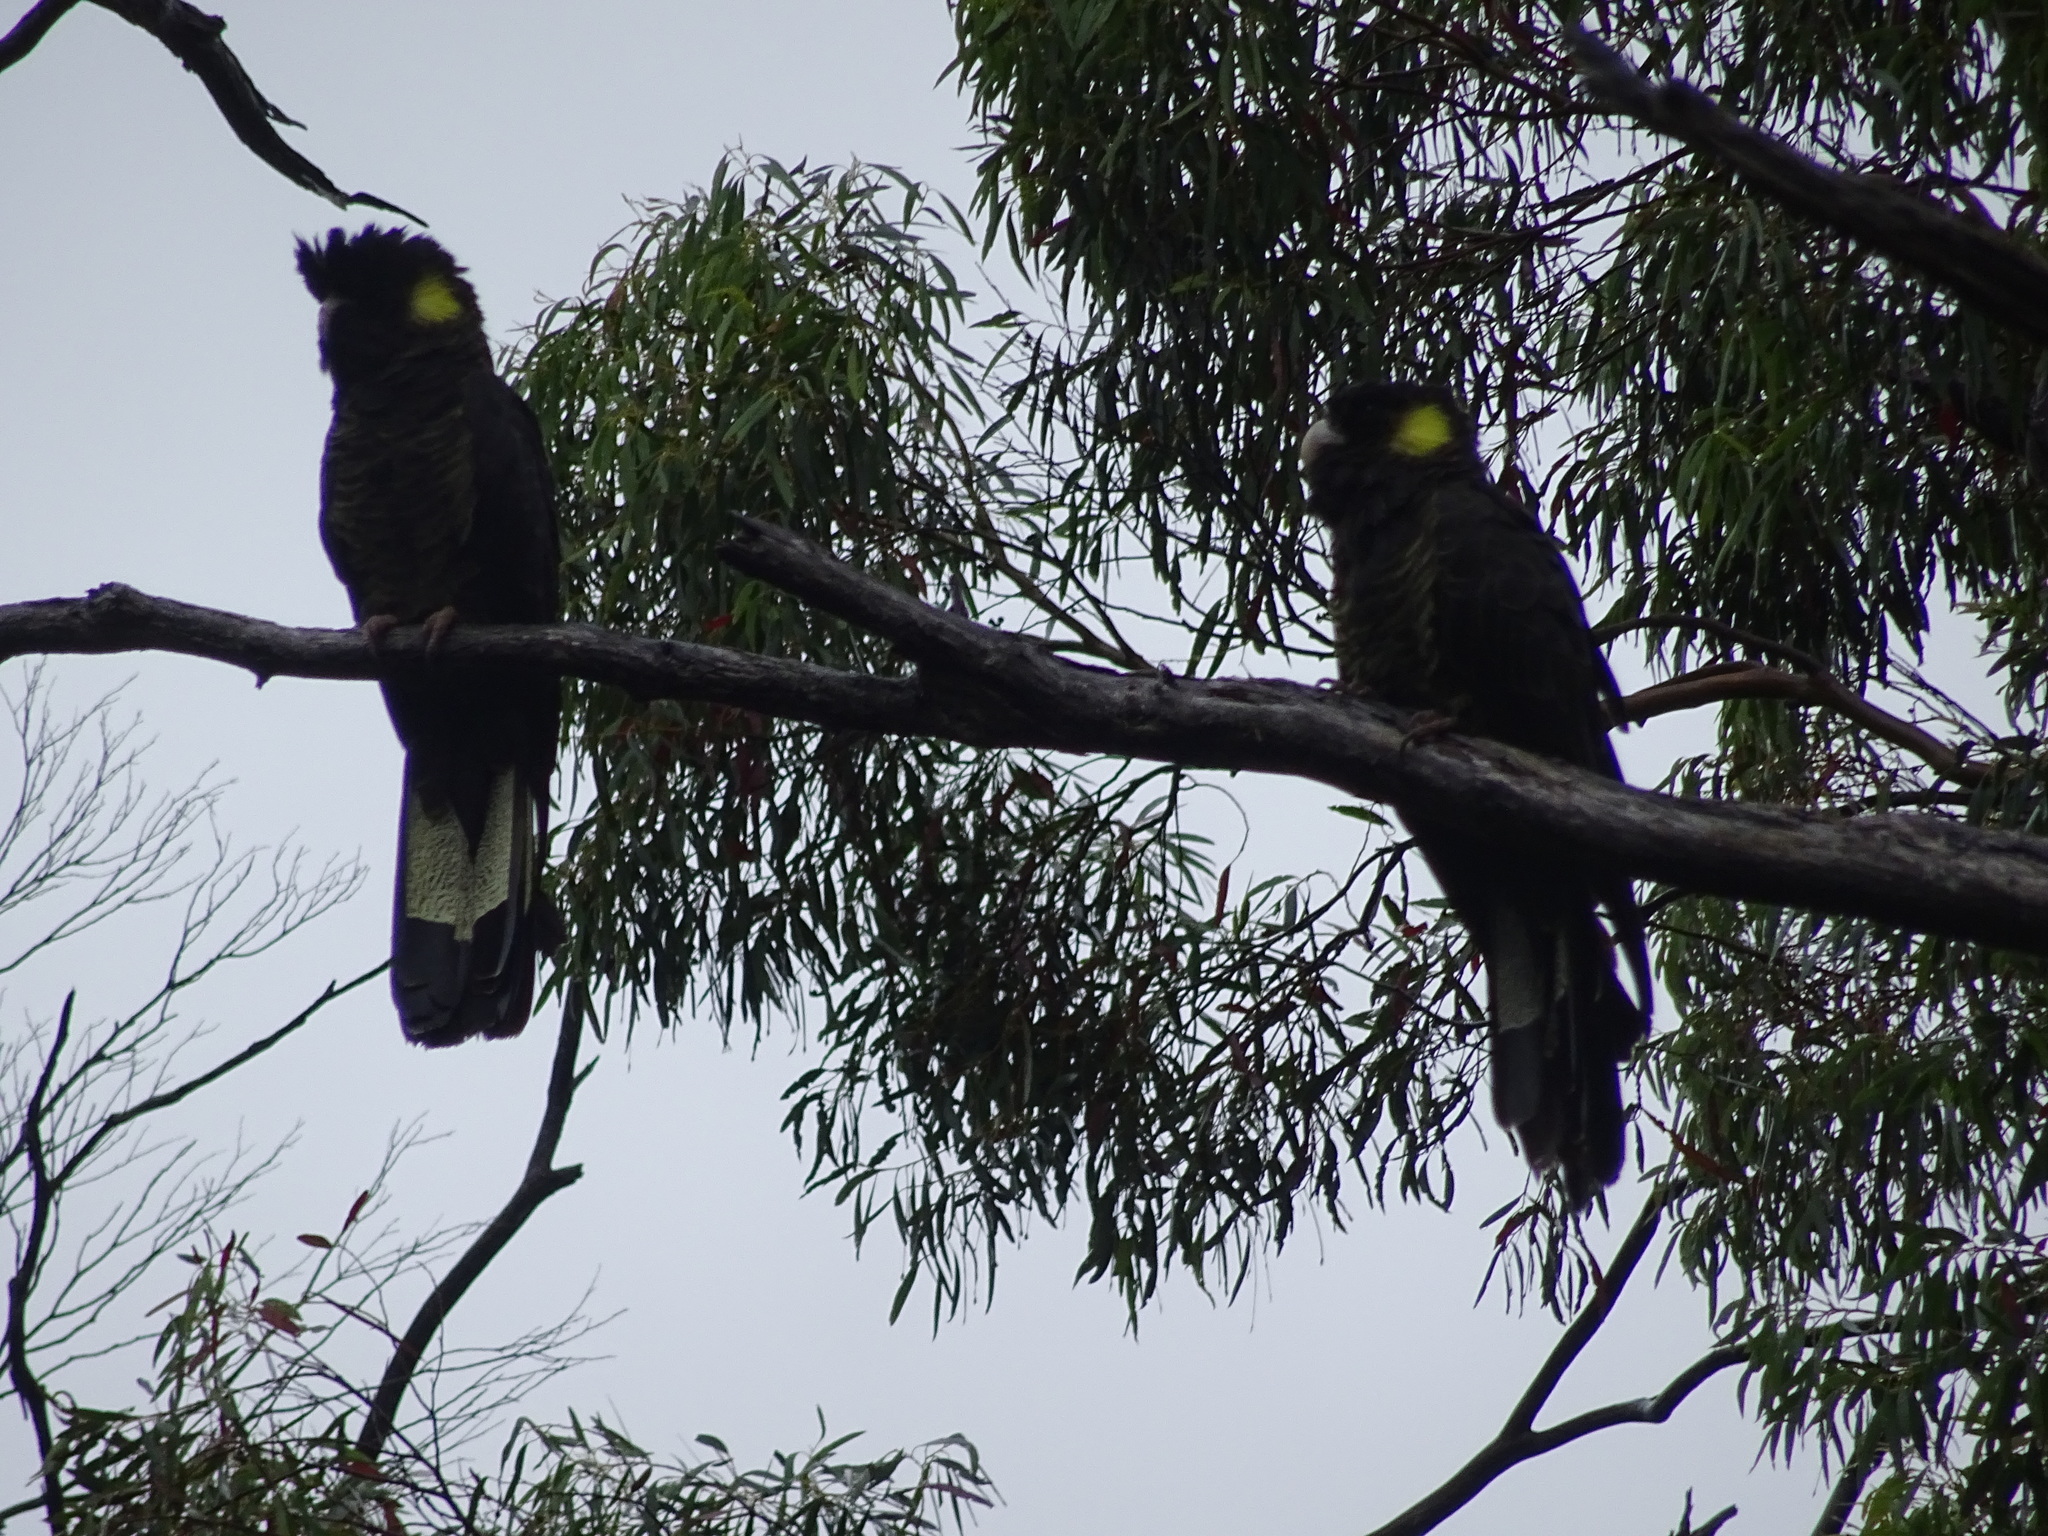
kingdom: Animalia
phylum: Chordata
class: Aves
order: Psittaciformes
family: Cacatuidae
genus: Zanda
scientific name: Zanda funerea
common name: Yellow-tailed black-cockatoo
